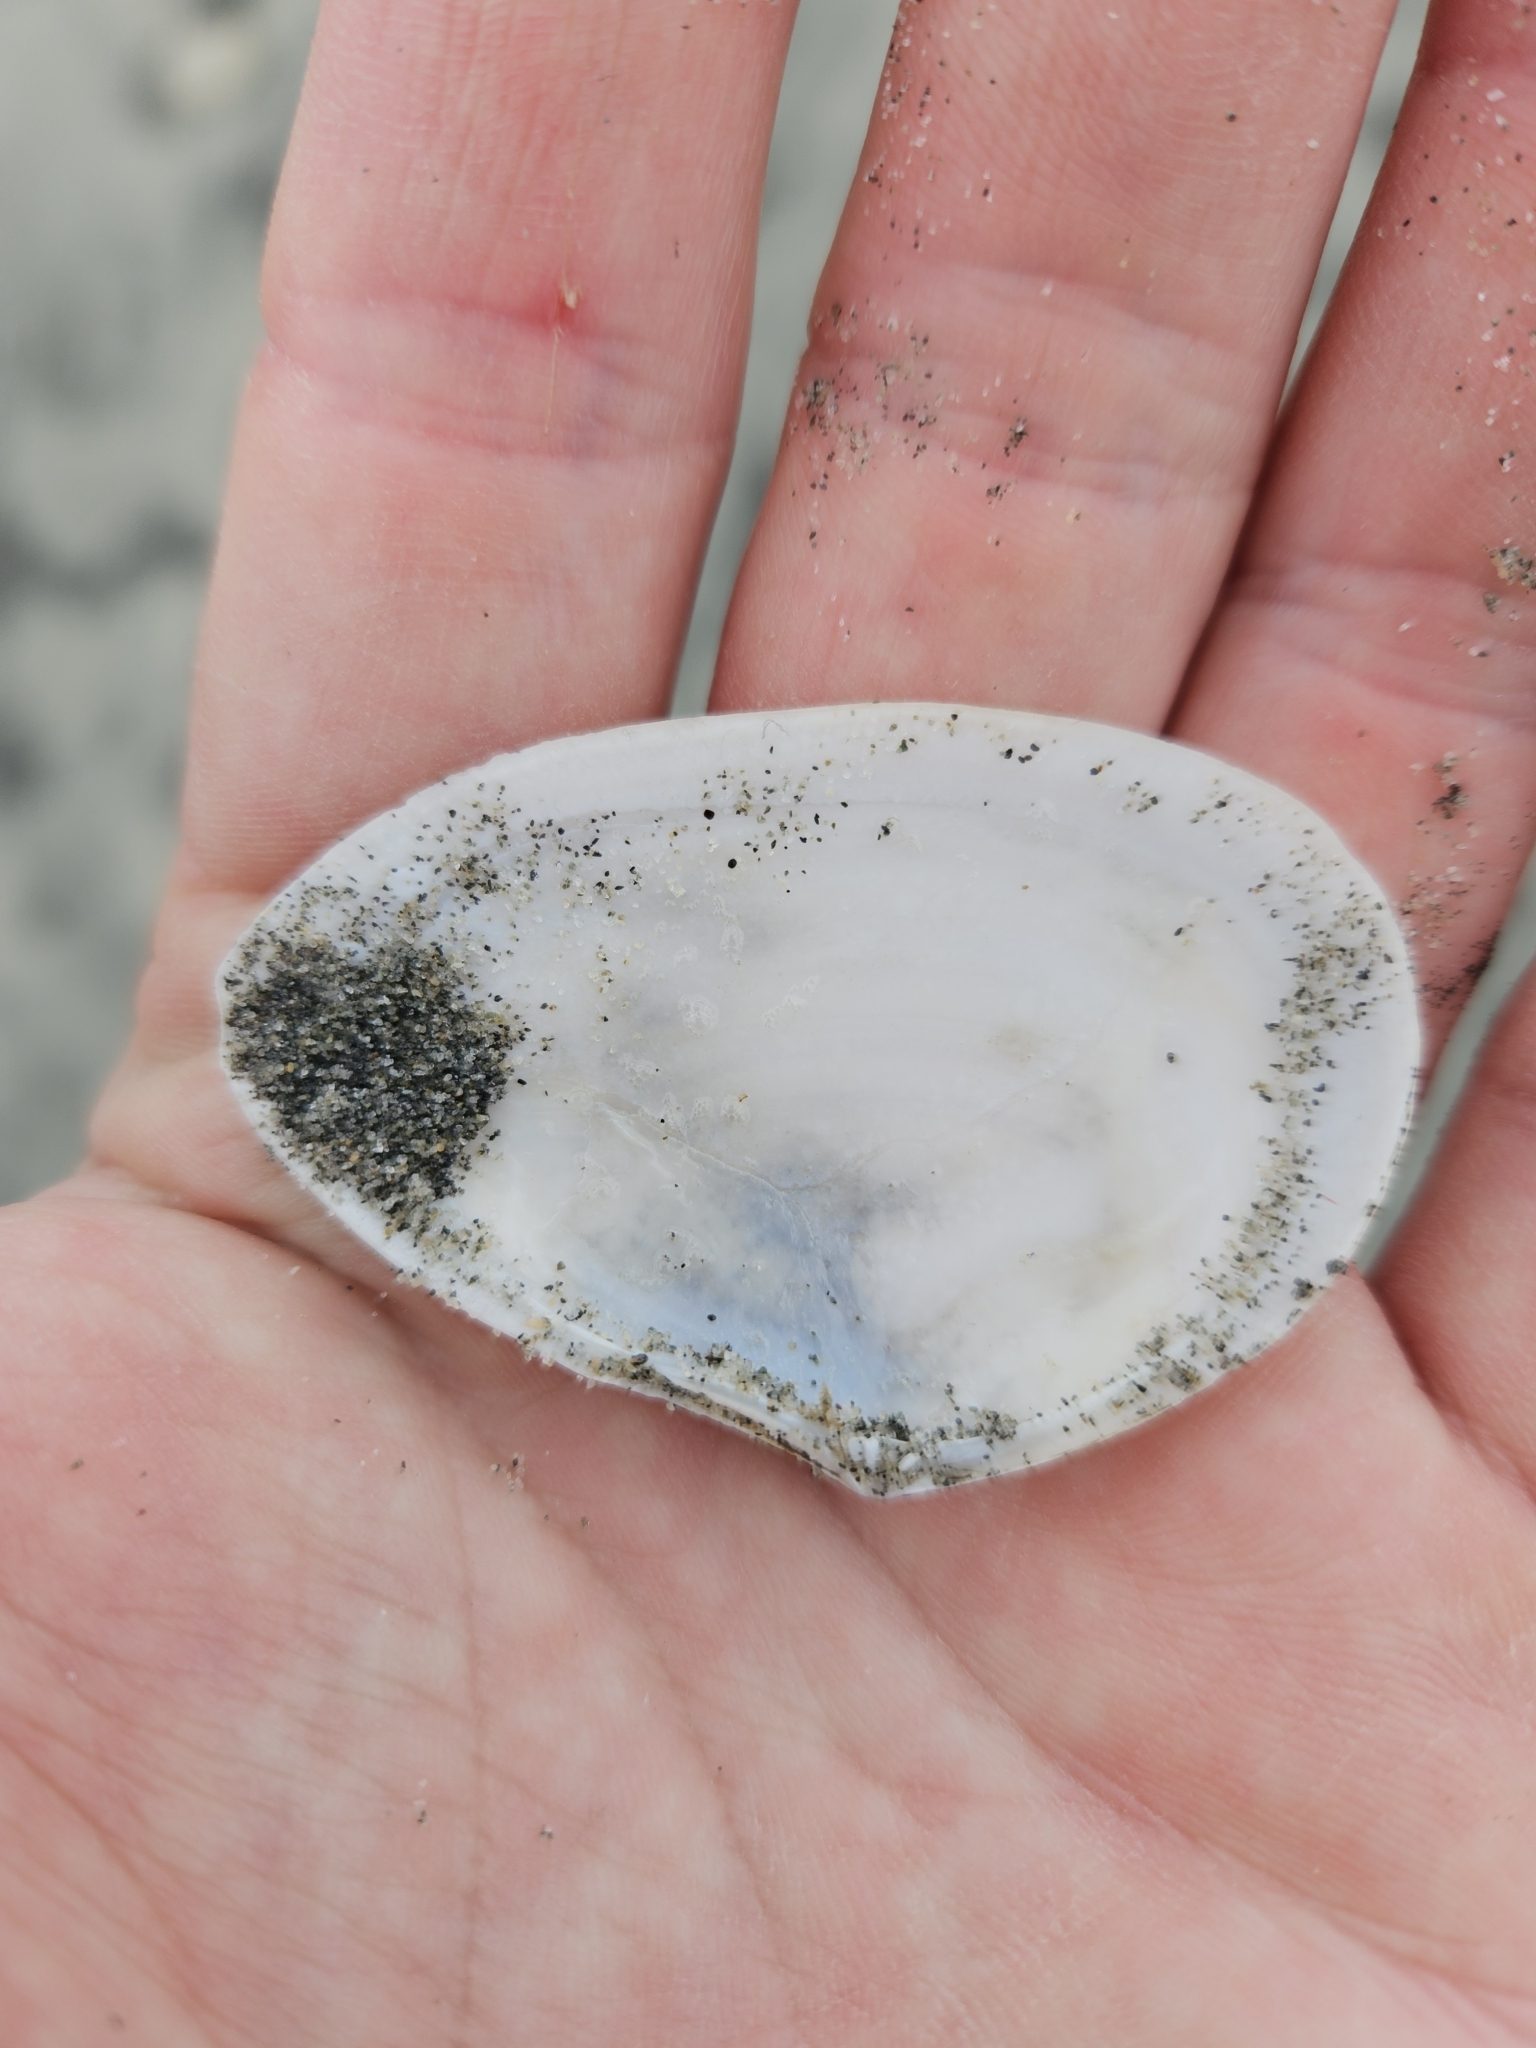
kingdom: Animalia
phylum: Mollusca
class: Bivalvia
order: Cardiida
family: Tellinidae
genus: Bartschicoma
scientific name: Bartschicoma gaimardi
